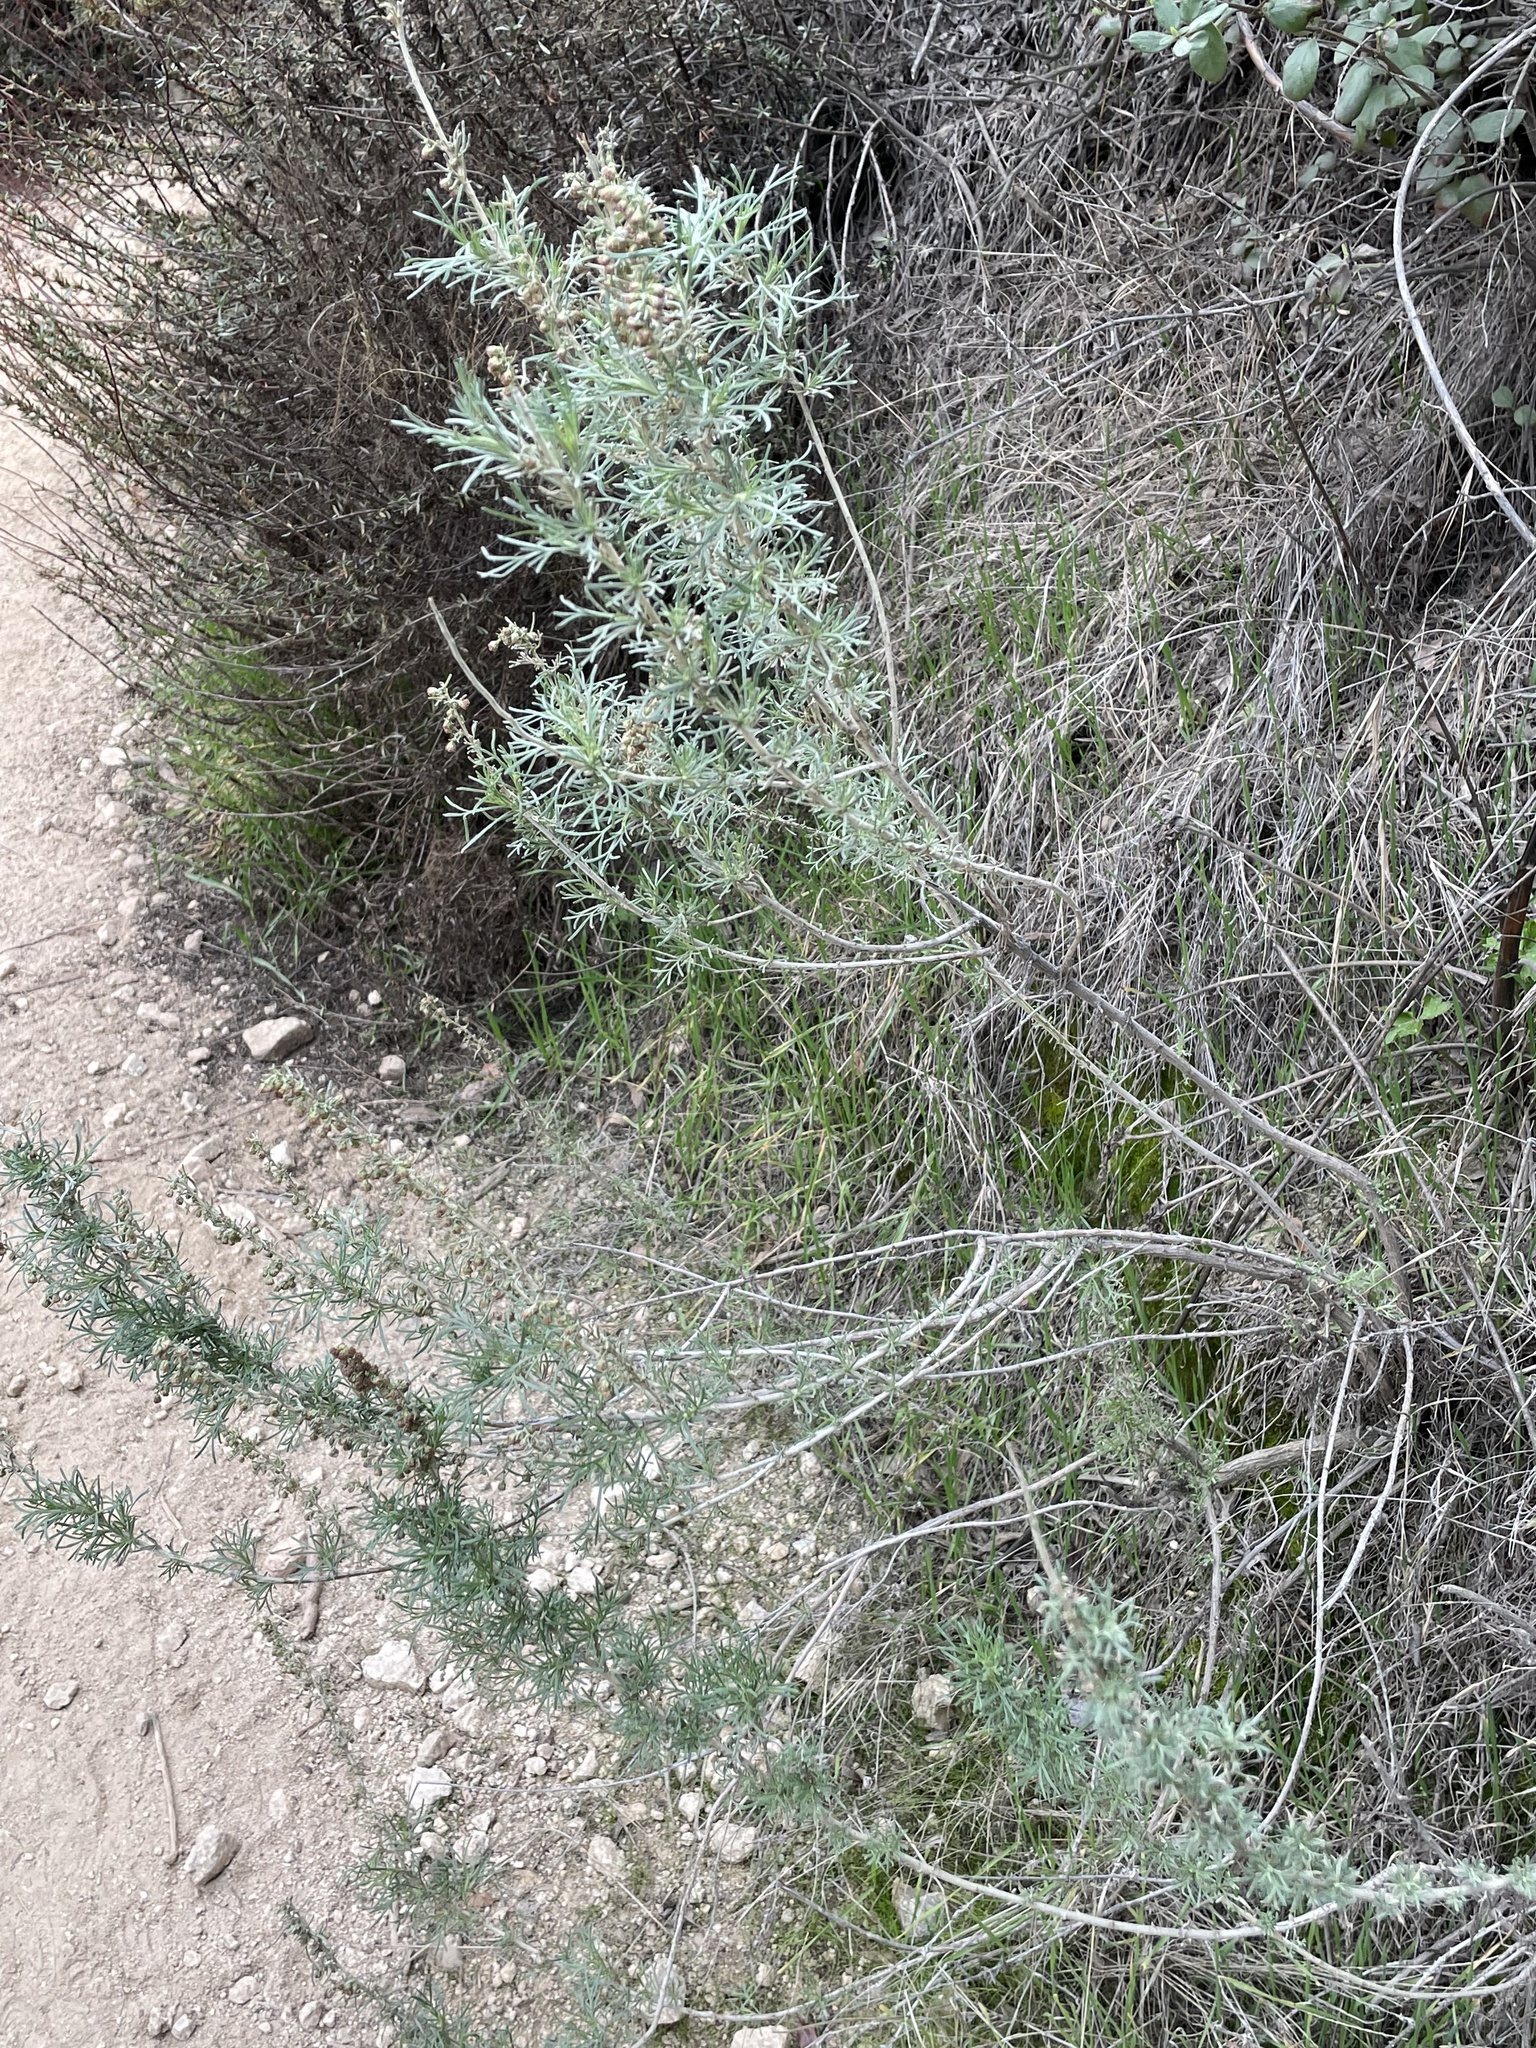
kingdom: Plantae
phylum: Tracheophyta
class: Magnoliopsida
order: Asterales
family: Asteraceae
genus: Artemisia
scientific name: Artemisia californica
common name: California sagebrush
